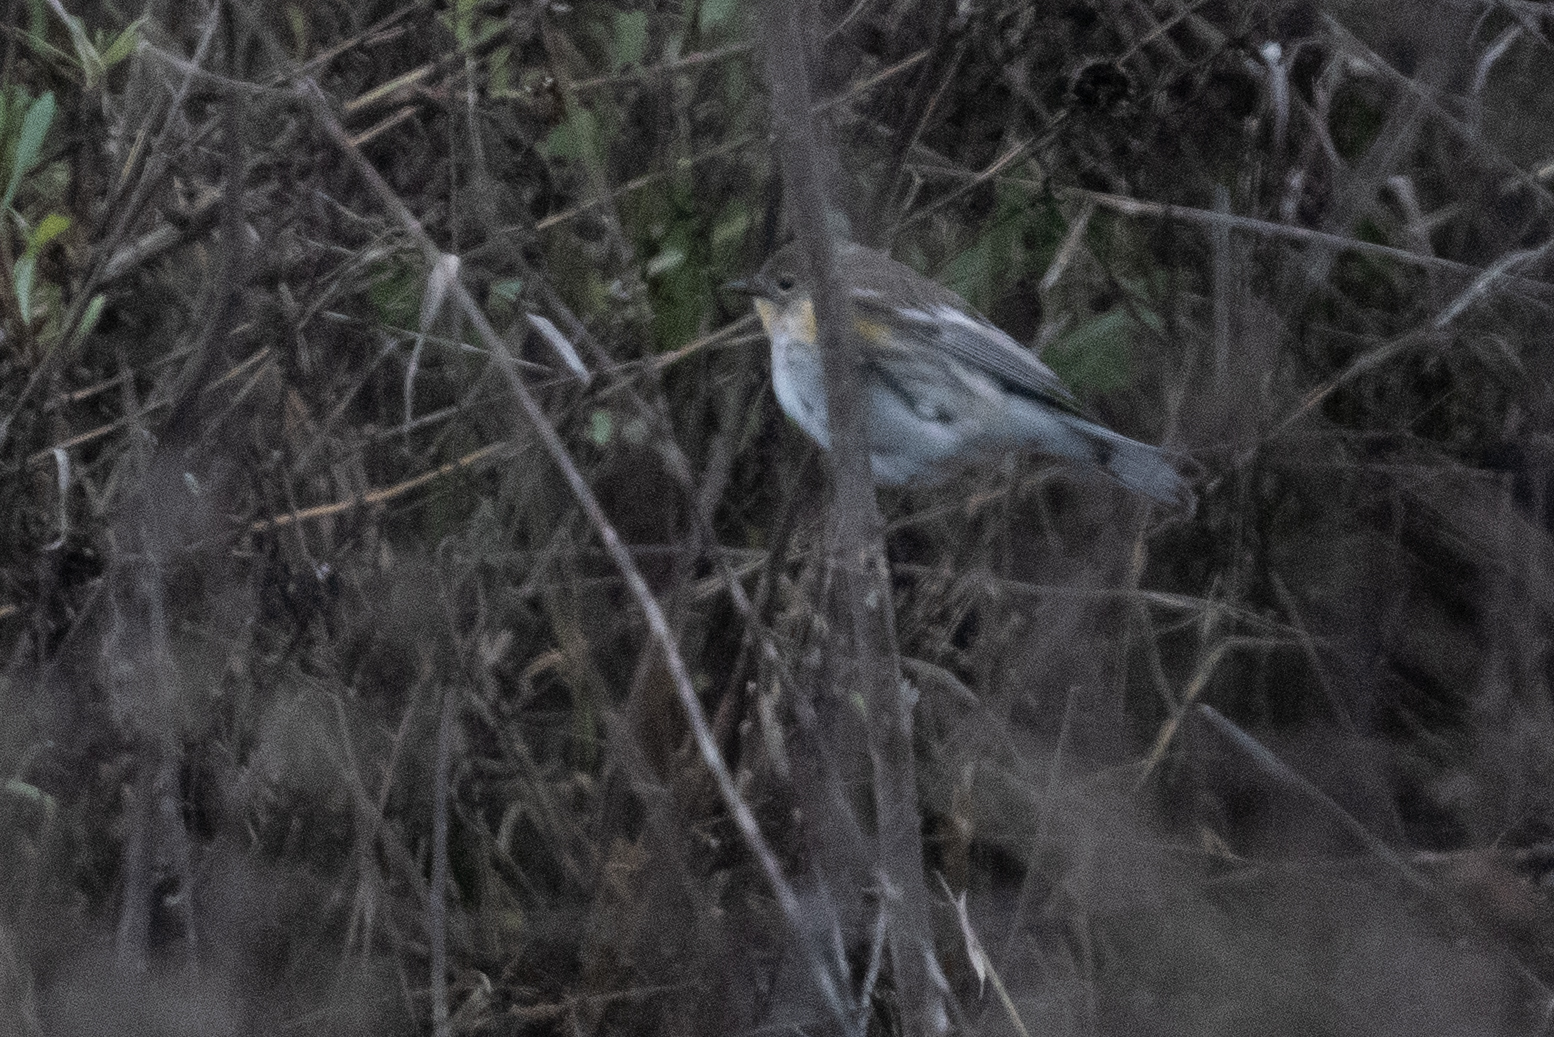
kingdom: Animalia
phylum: Chordata
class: Aves
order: Passeriformes
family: Parulidae
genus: Setophaga
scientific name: Setophaga coronata
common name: Myrtle warbler
